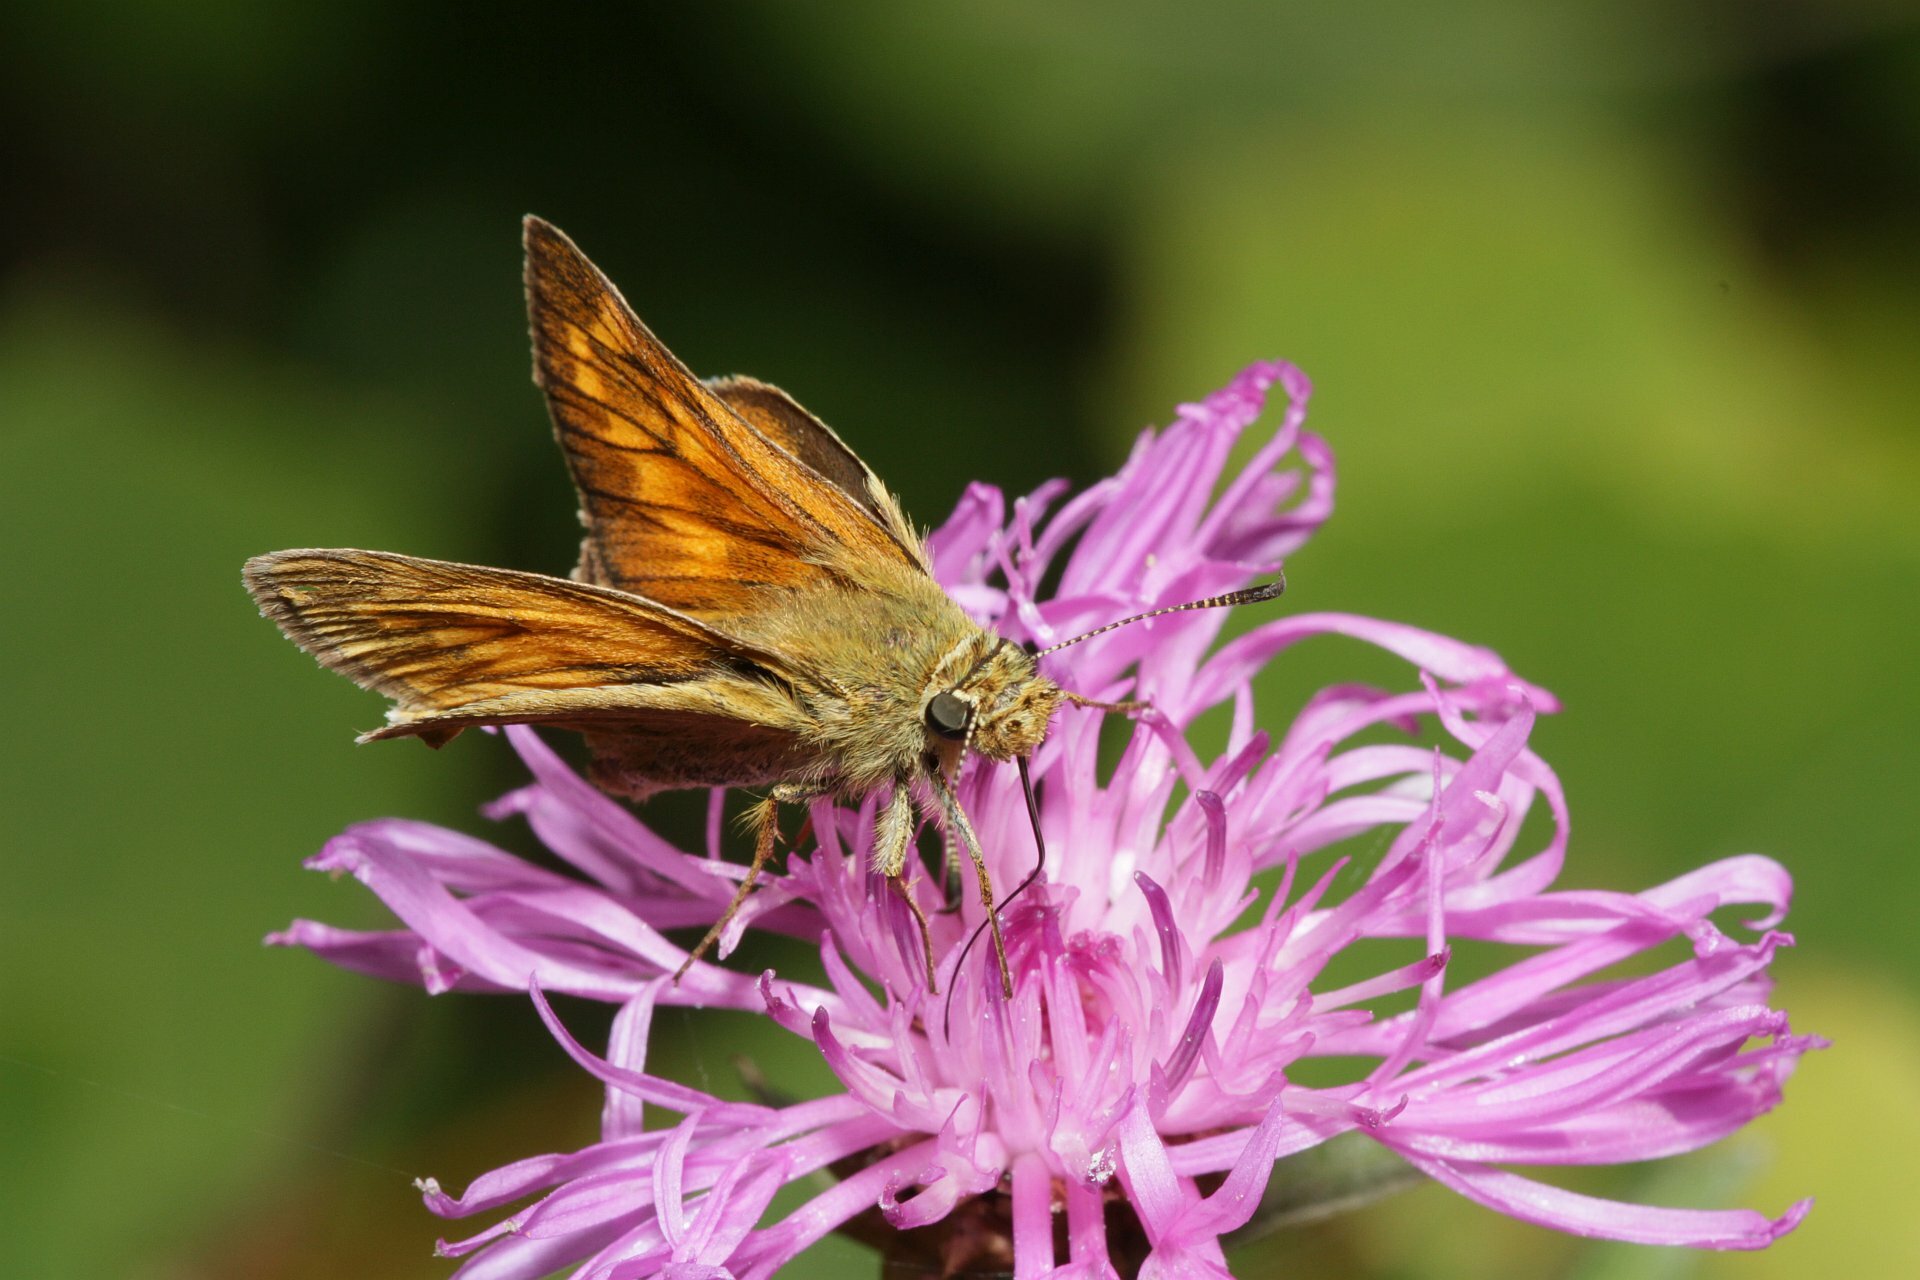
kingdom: Animalia
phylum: Arthropoda
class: Insecta
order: Lepidoptera
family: Hesperiidae
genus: Ochlodes
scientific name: Ochlodes venata
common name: Large skipper
